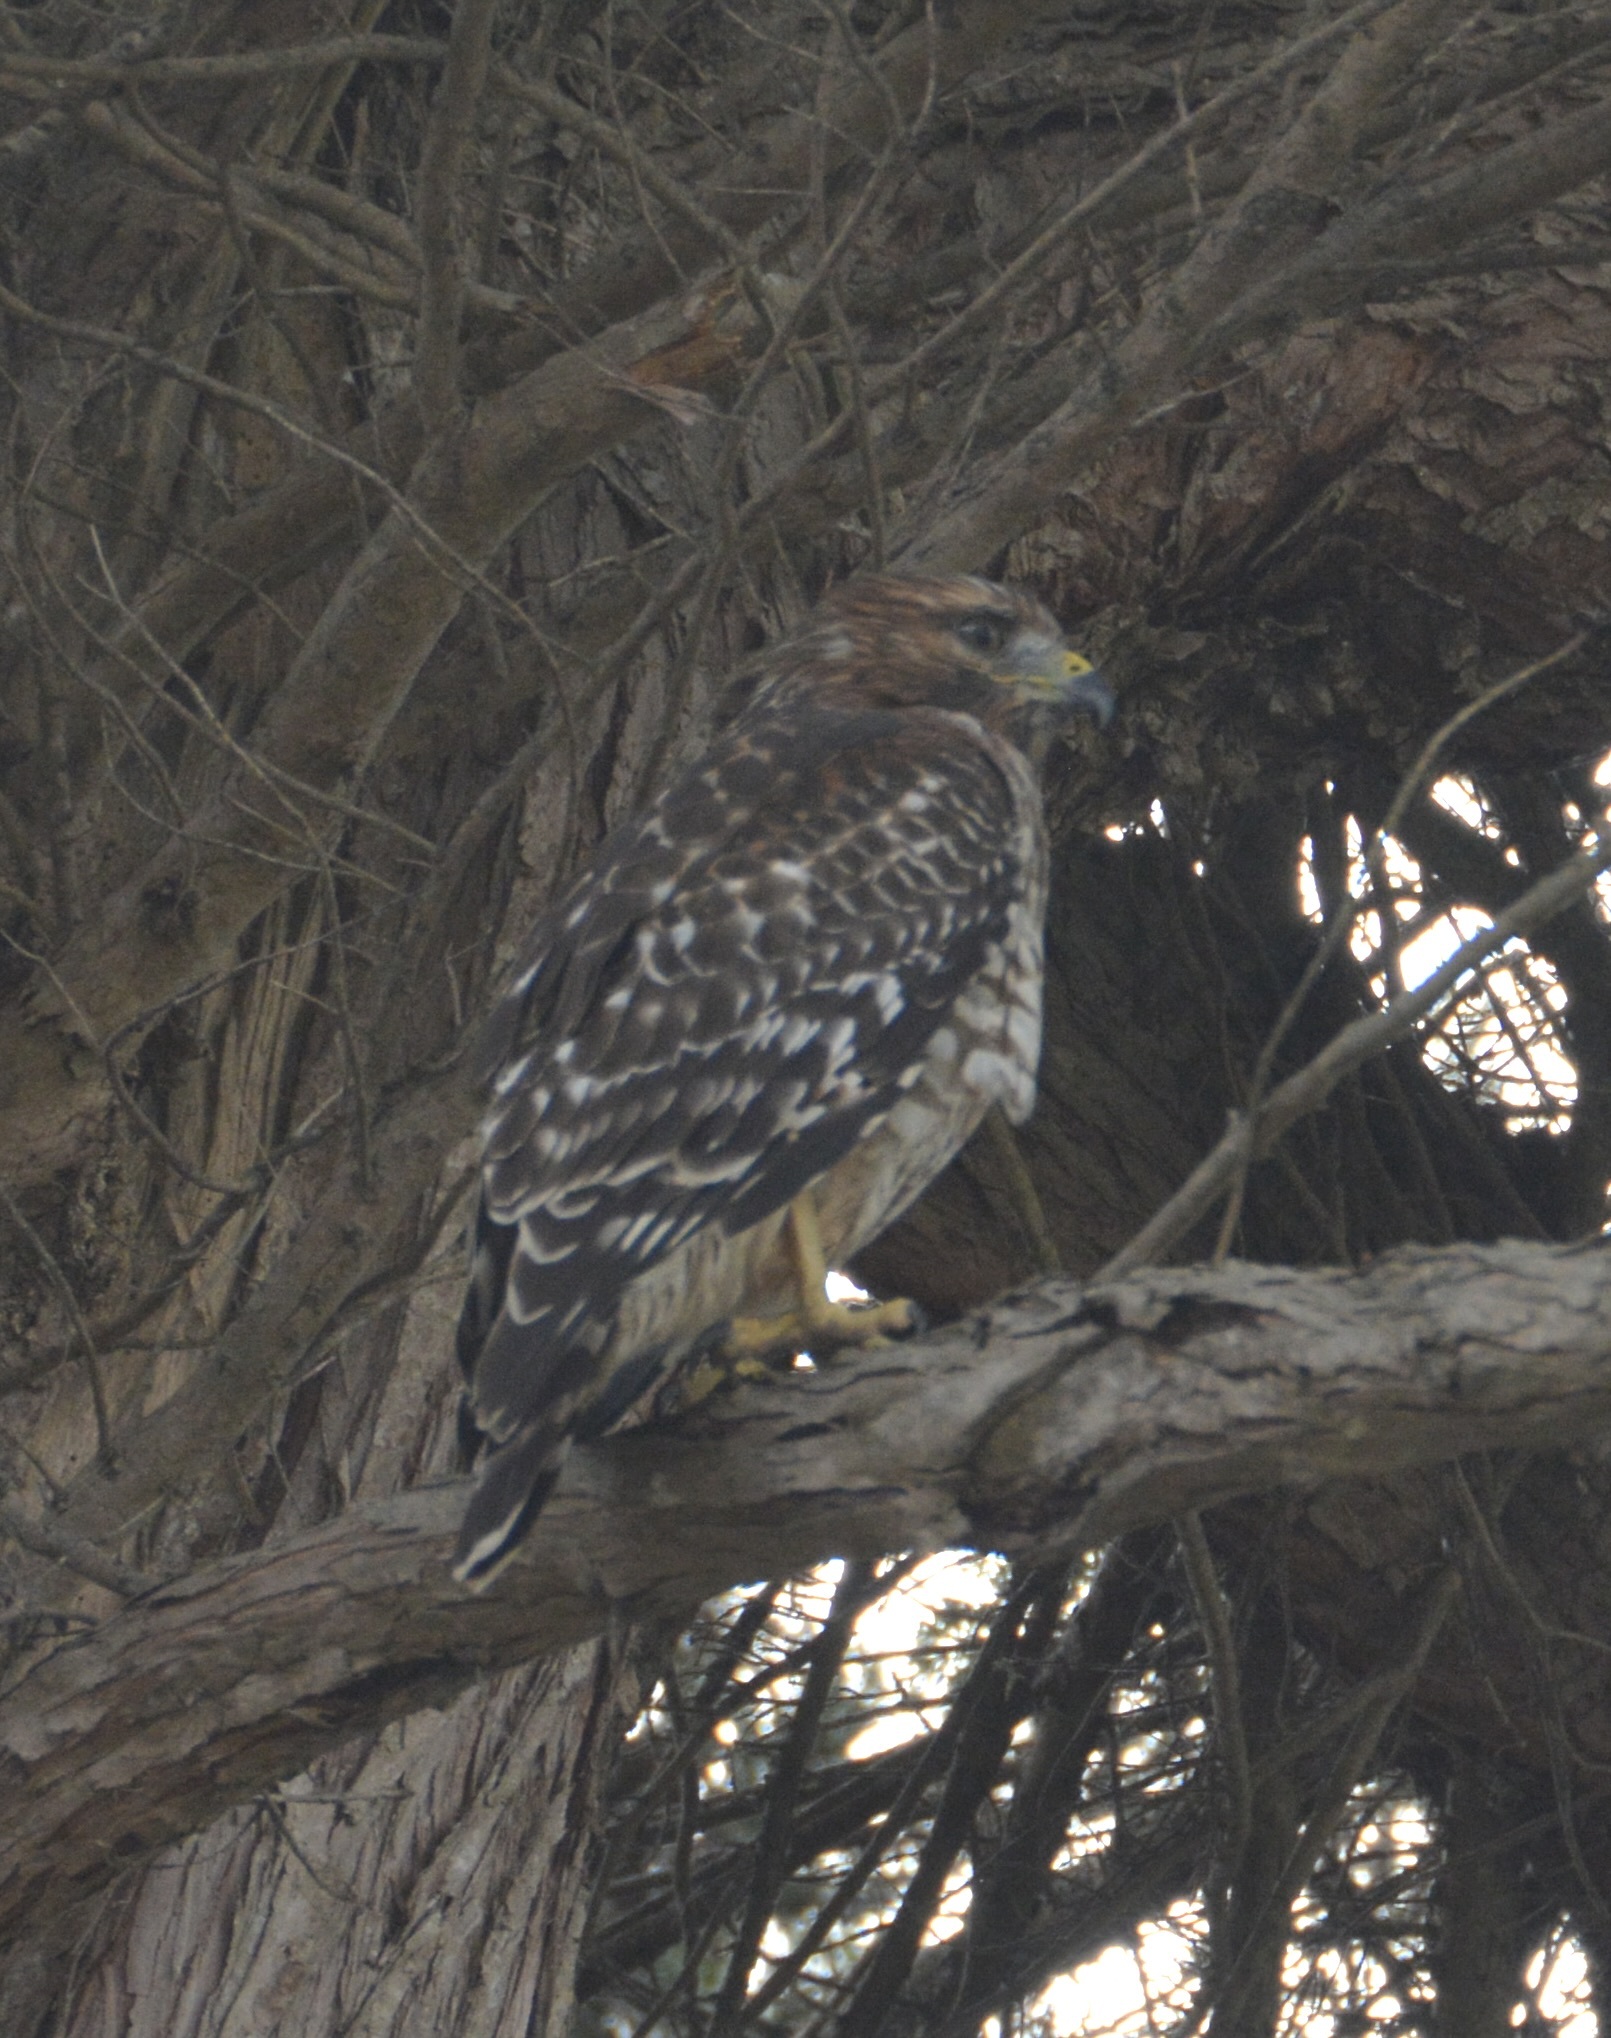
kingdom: Animalia
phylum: Chordata
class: Aves
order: Accipitriformes
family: Accipitridae
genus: Buteo
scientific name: Buteo lineatus
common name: Red-shouldered hawk
